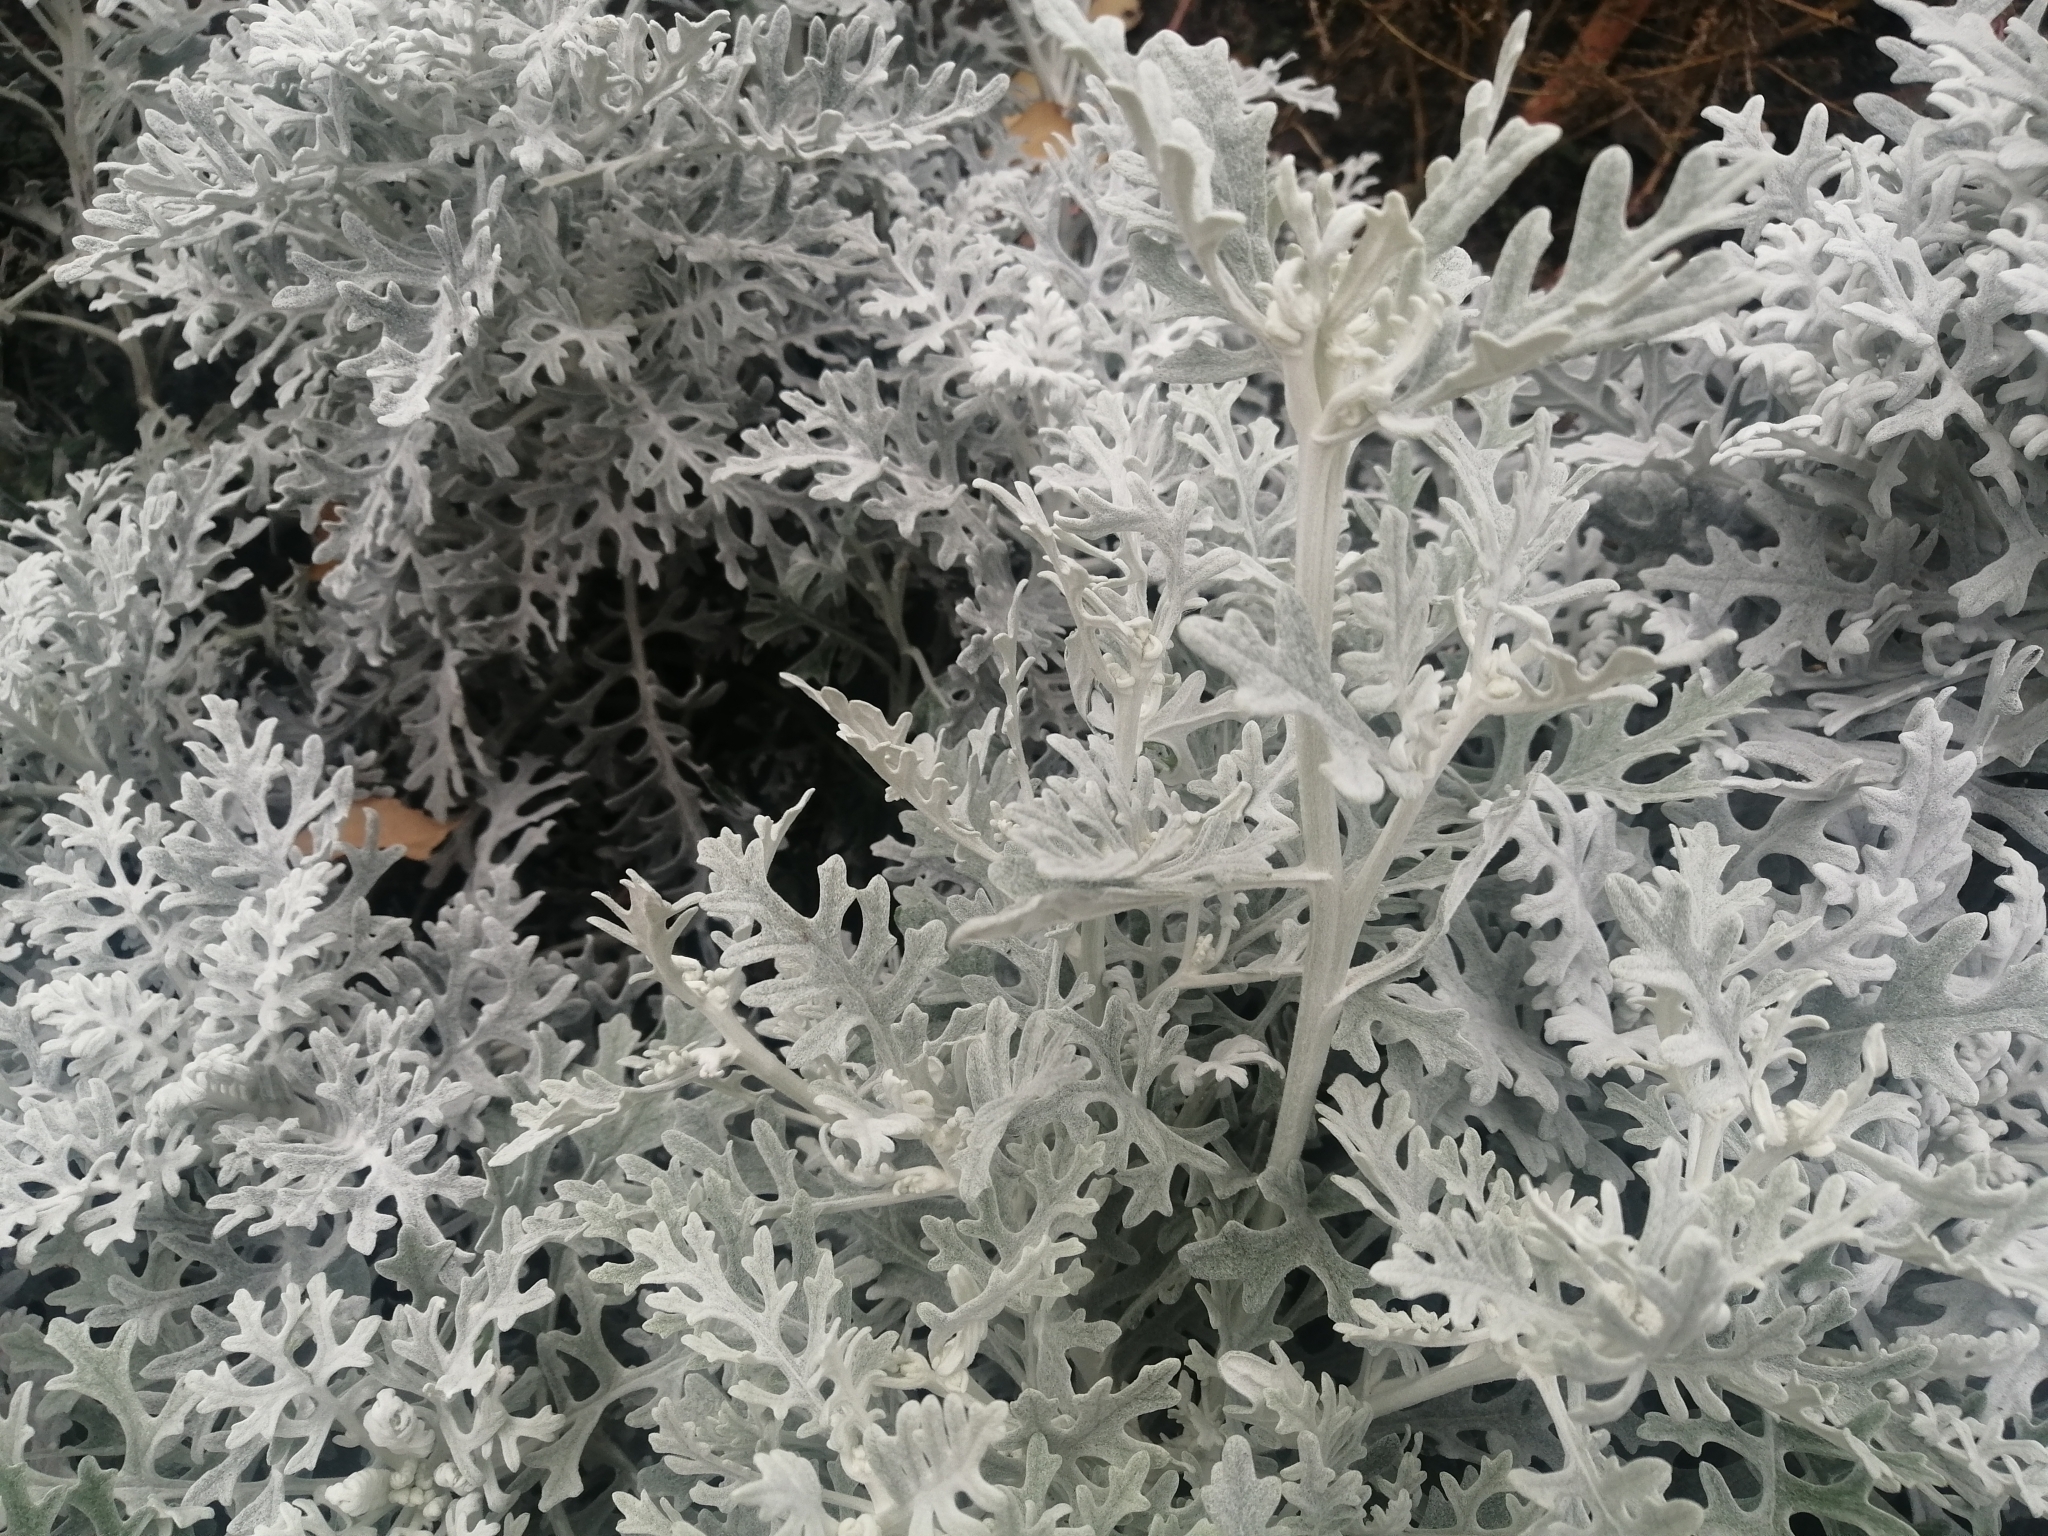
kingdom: Plantae
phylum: Tracheophyta
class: Magnoliopsida
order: Asterales
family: Asteraceae
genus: Jacobaea
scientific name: Jacobaea maritima
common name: Silver ragwort
